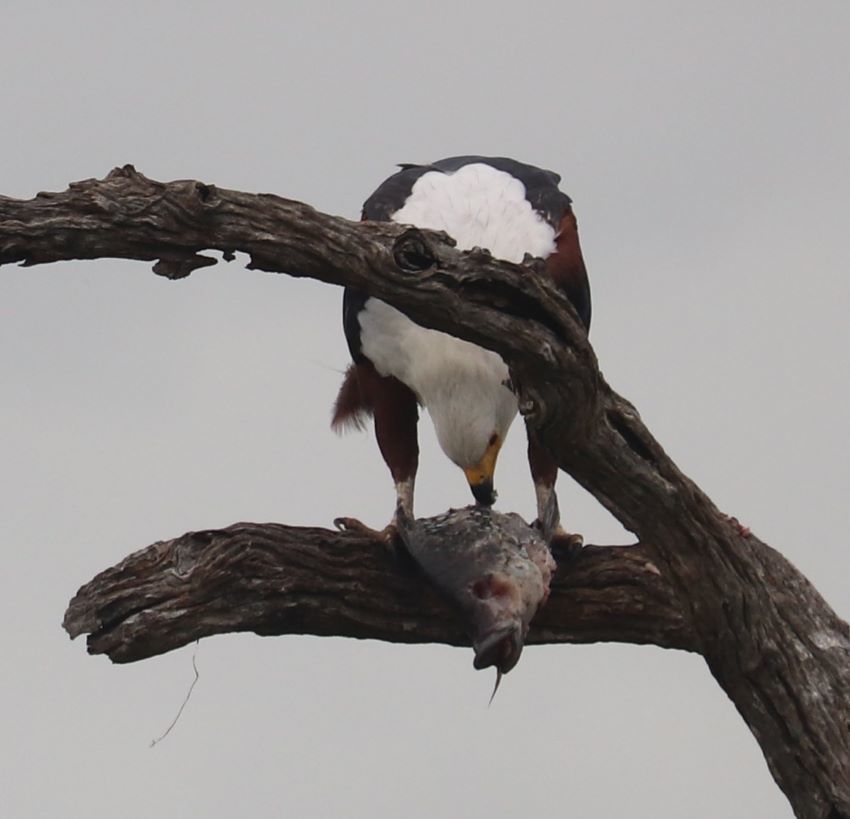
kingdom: Animalia
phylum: Chordata
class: Aves
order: Accipitriformes
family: Accipitridae
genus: Haliaeetus
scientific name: Haliaeetus vocifer
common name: African fish eagle
